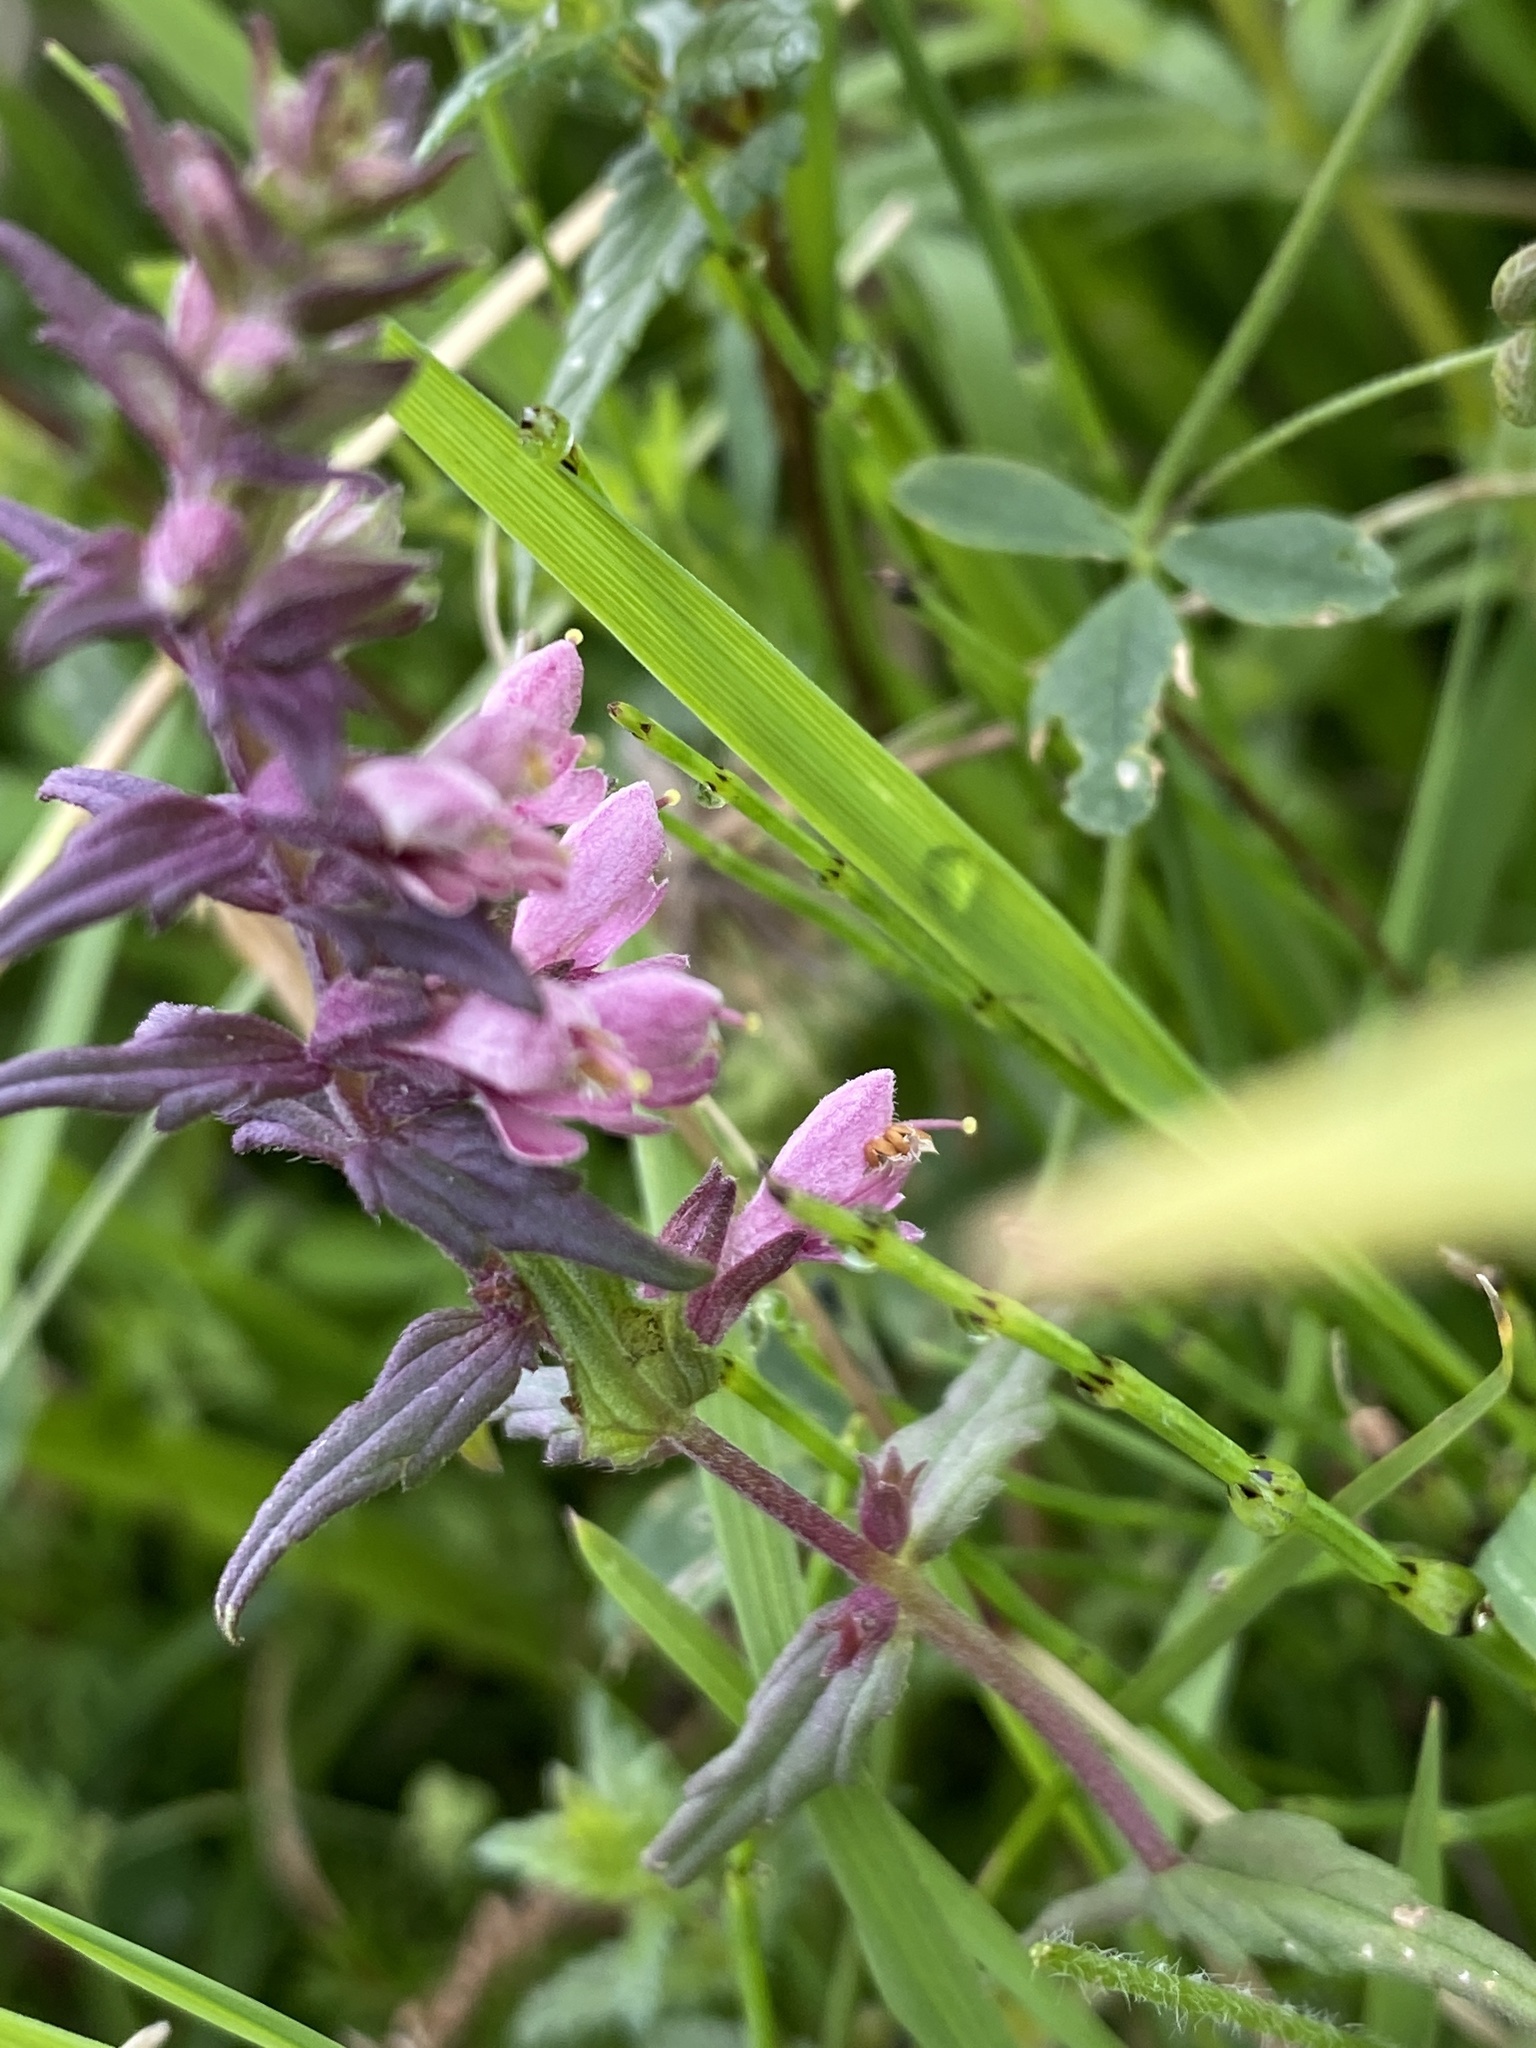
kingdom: Plantae
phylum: Tracheophyta
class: Magnoliopsida
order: Lamiales
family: Orobanchaceae
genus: Odontites
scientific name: Odontites vernus
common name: Red bartsia
